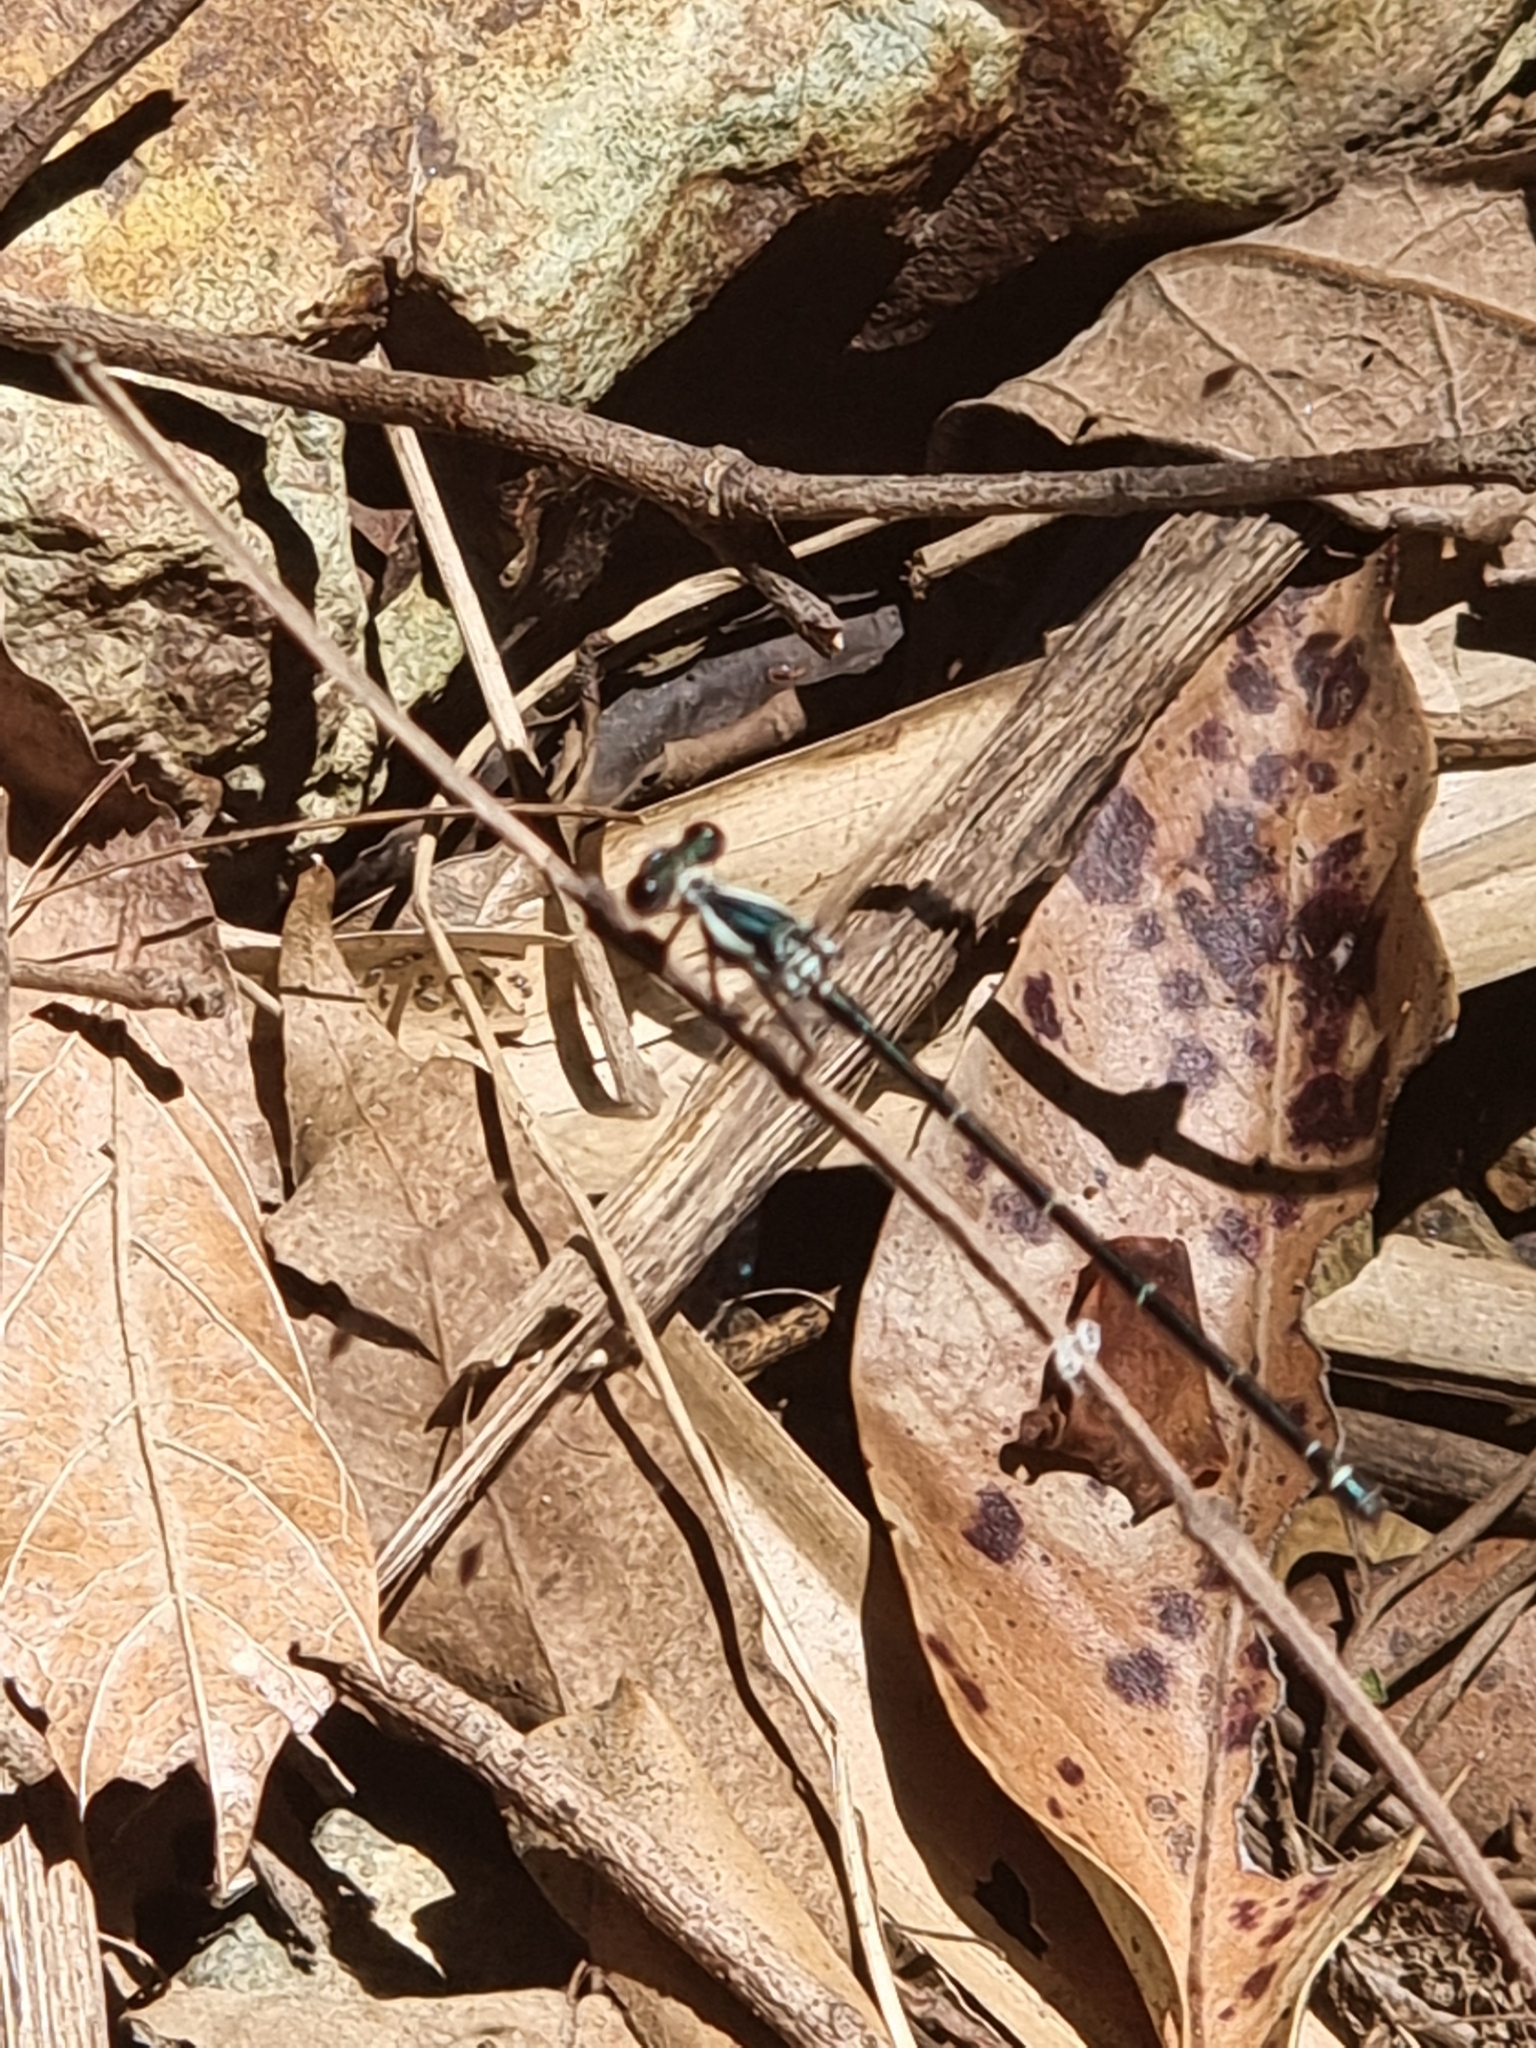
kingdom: Animalia
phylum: Arthropoda
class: Insecta
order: Odonata
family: Argiolestidae
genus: Austroargiolestes
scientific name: Austroargiolestes icteromelas
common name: Common flatwing
